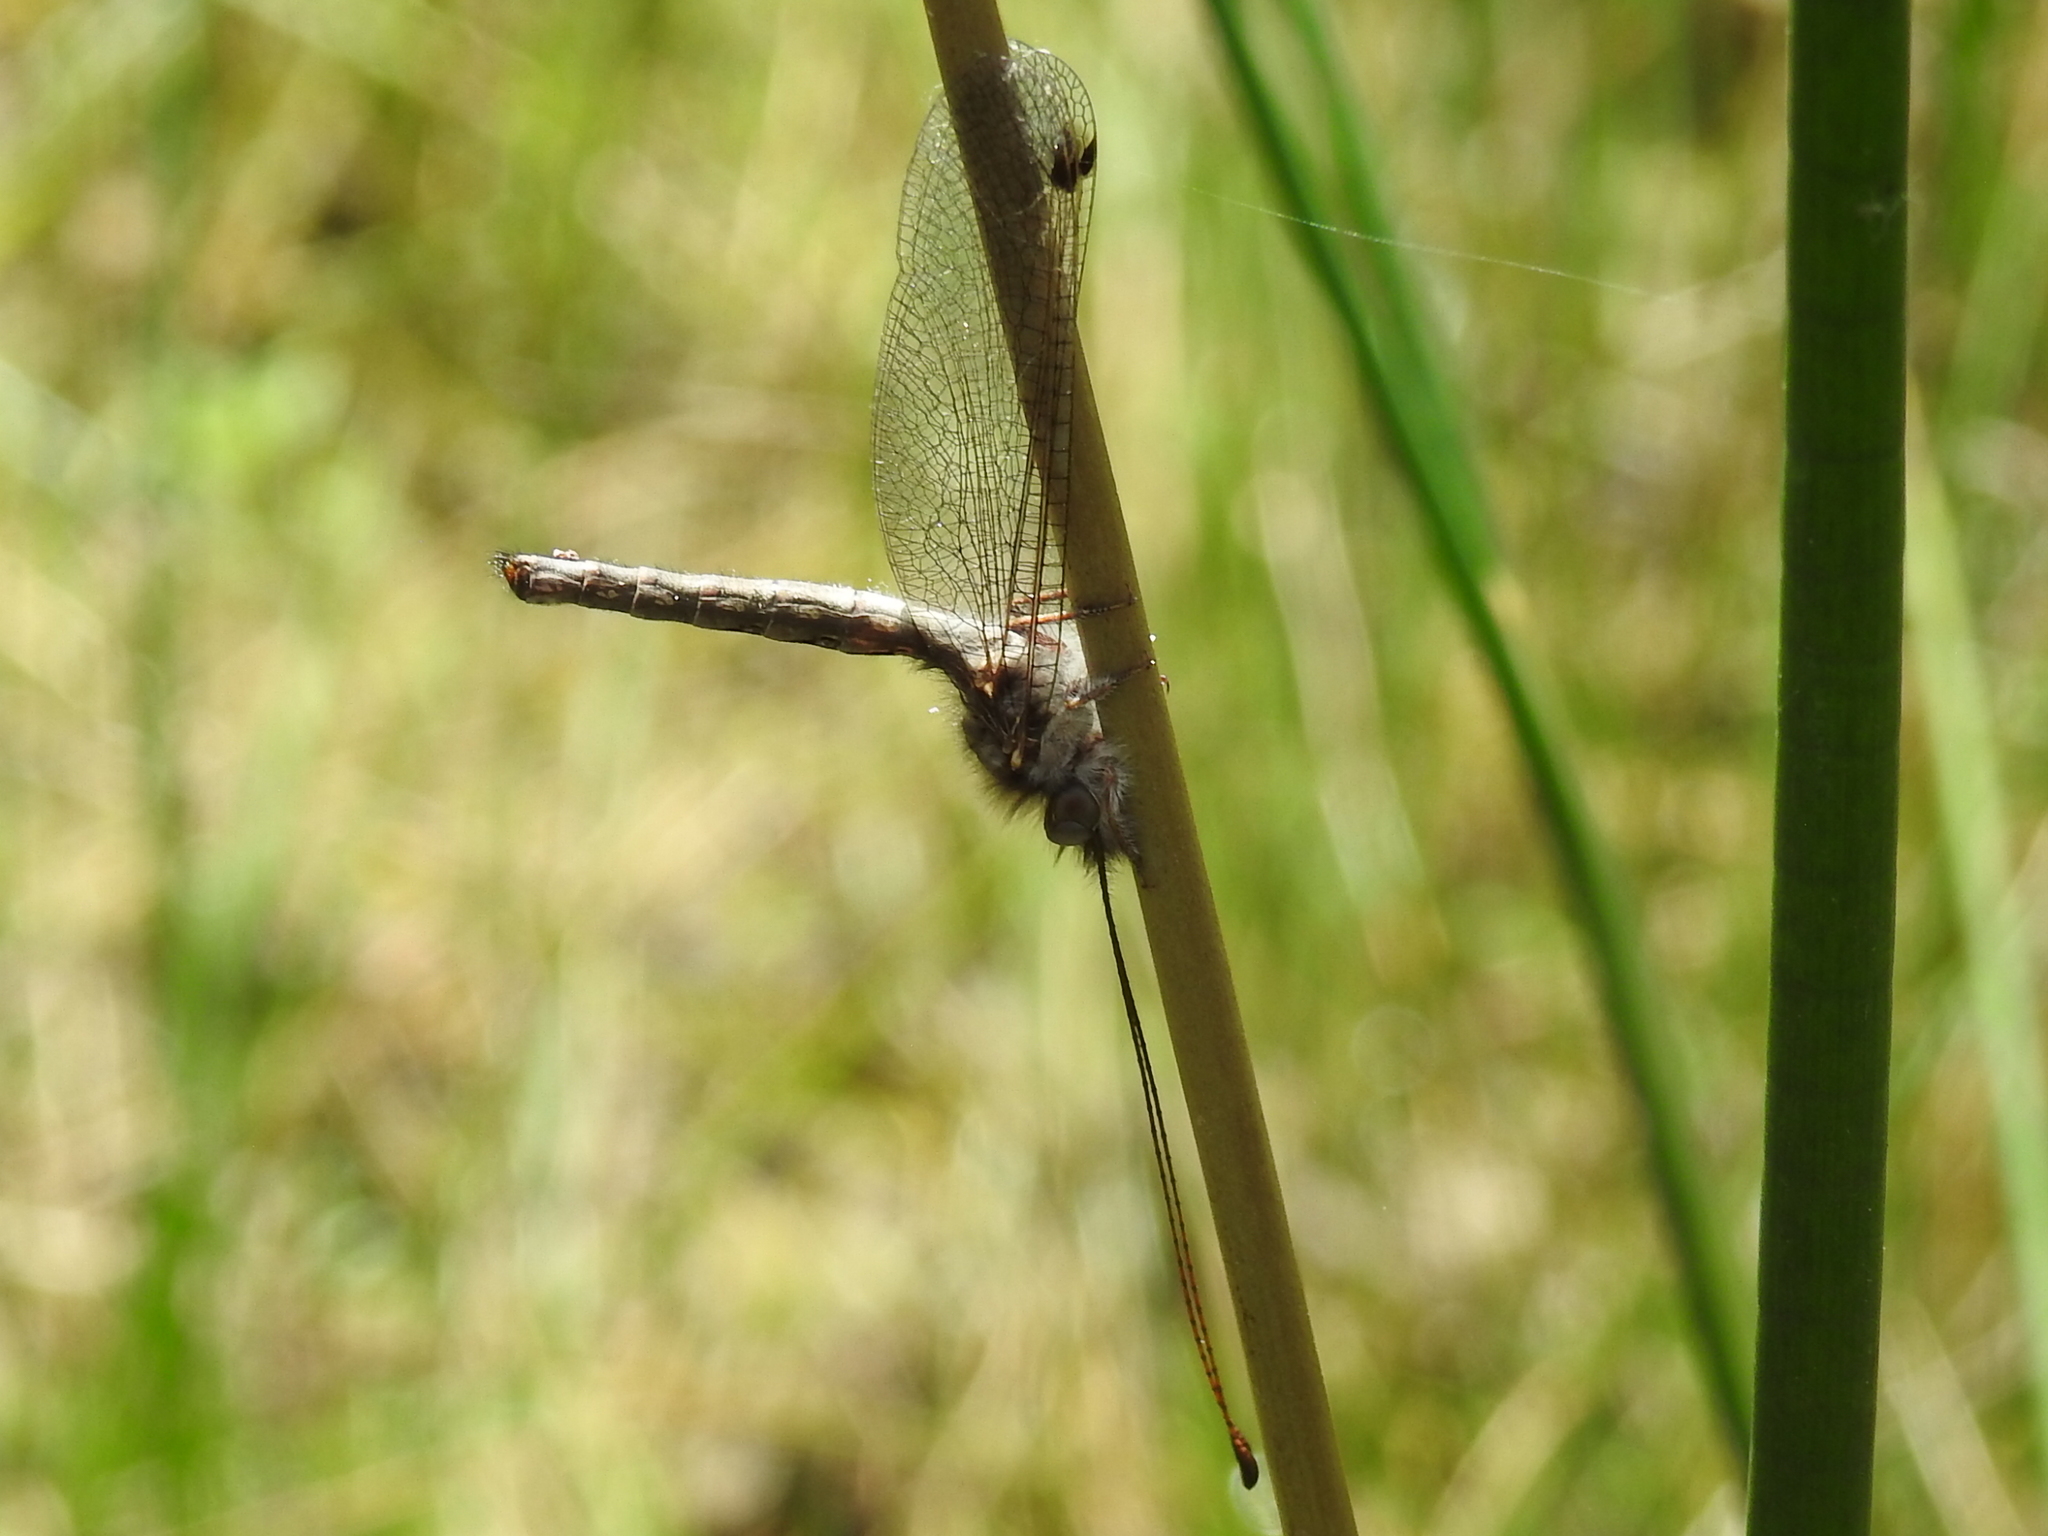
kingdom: Animalia
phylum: Arthropoda
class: Insecta
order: Neuroptera
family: Ascalaphidae
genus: Ululodes
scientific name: Ululodes macleayanus
